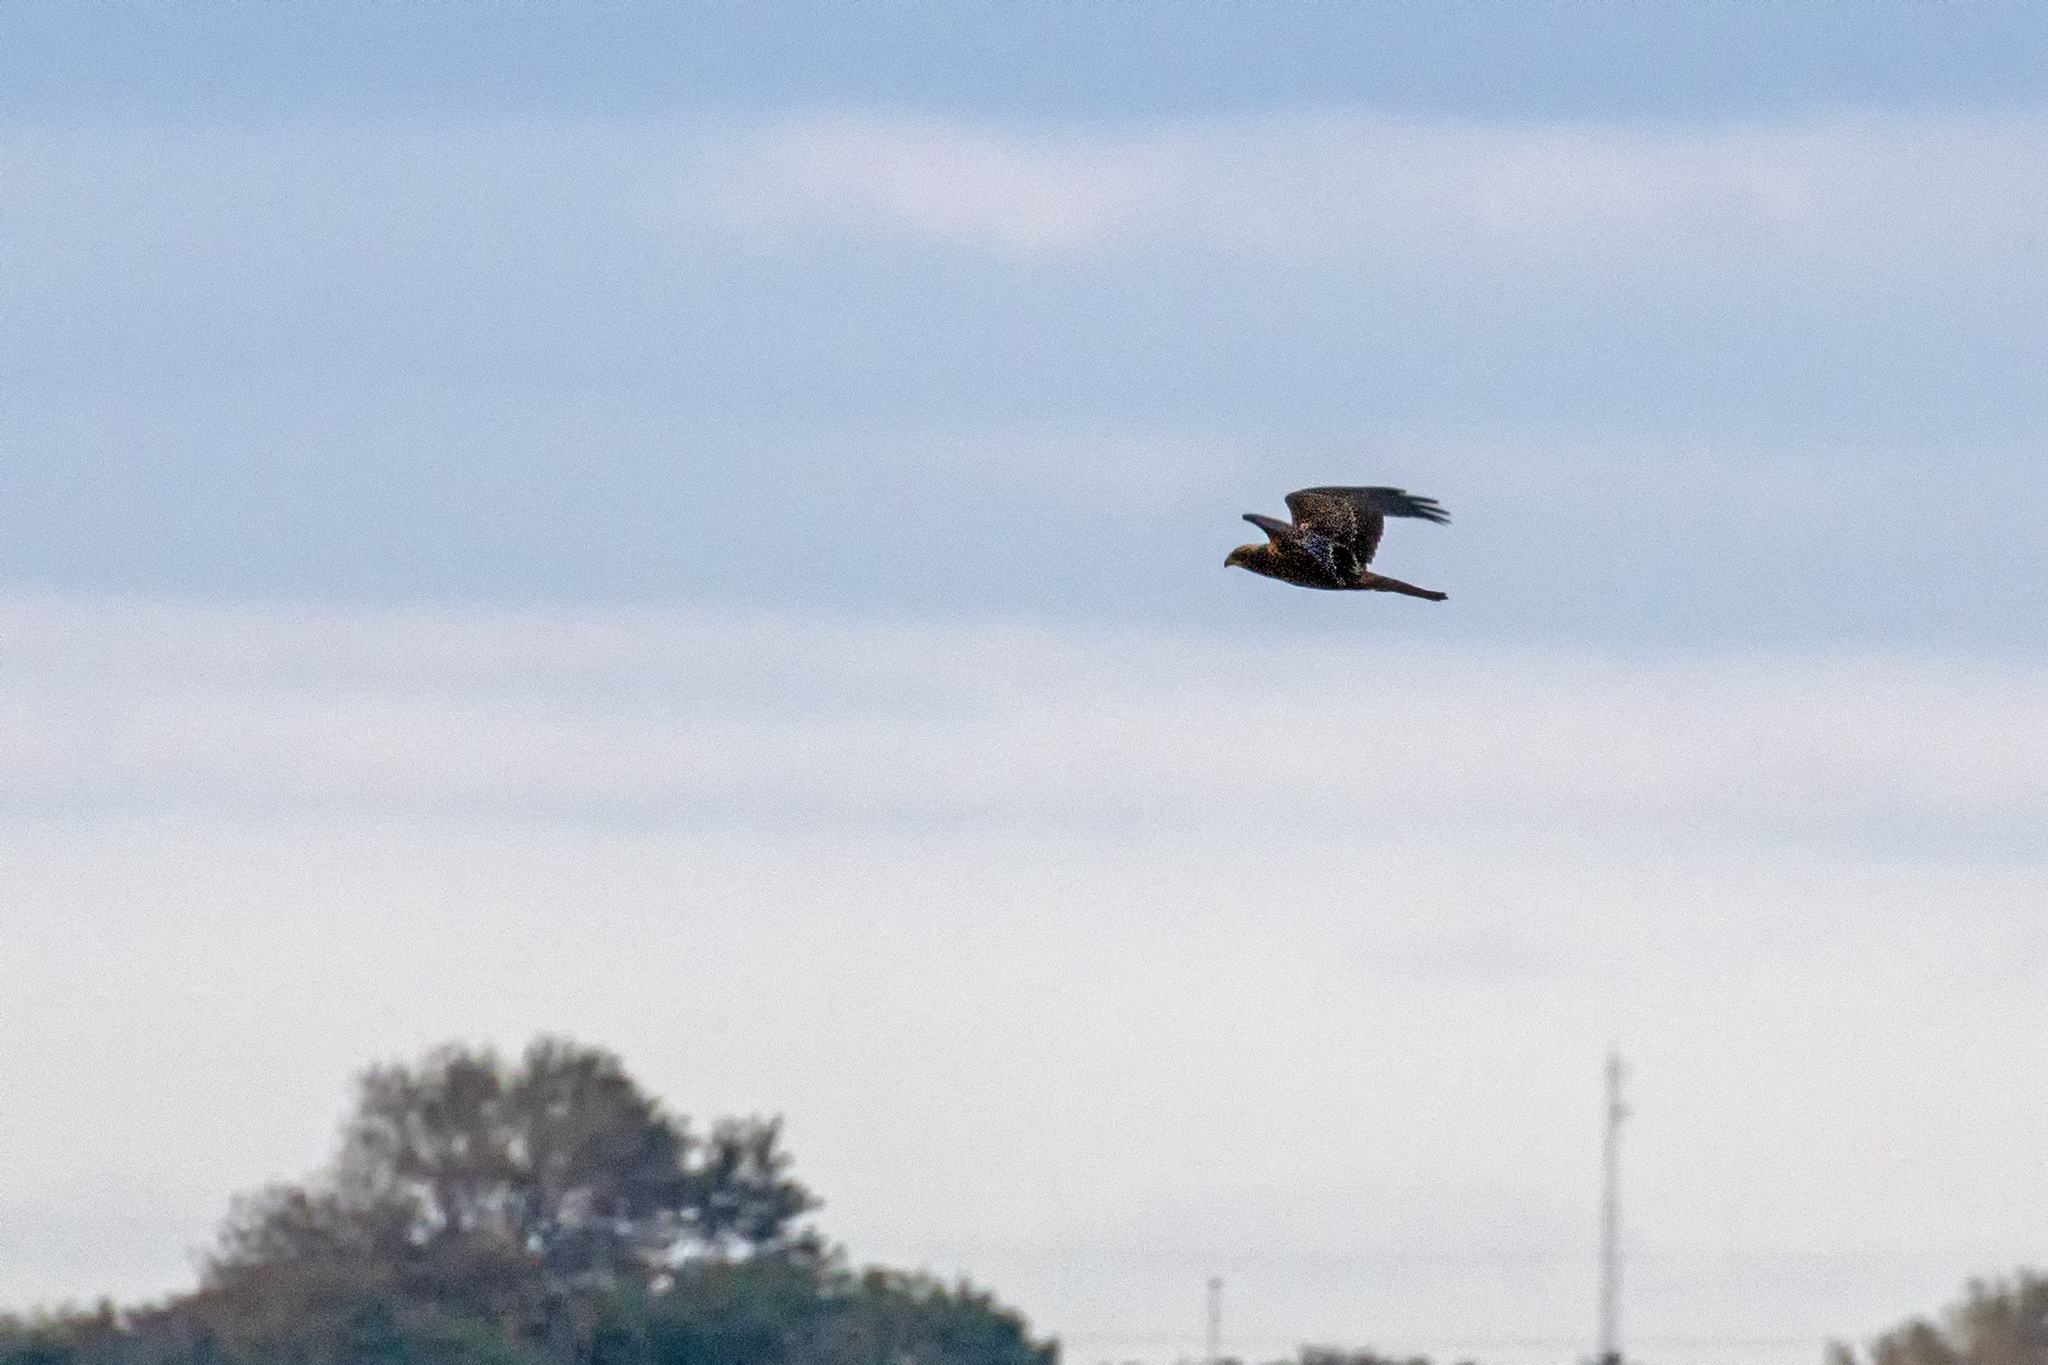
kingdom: Animalia
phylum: Chordata
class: Aves
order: Accipitriformes
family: Accipitridae
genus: Circus
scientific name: Circus aeruginosus
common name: Western marsh harrier
